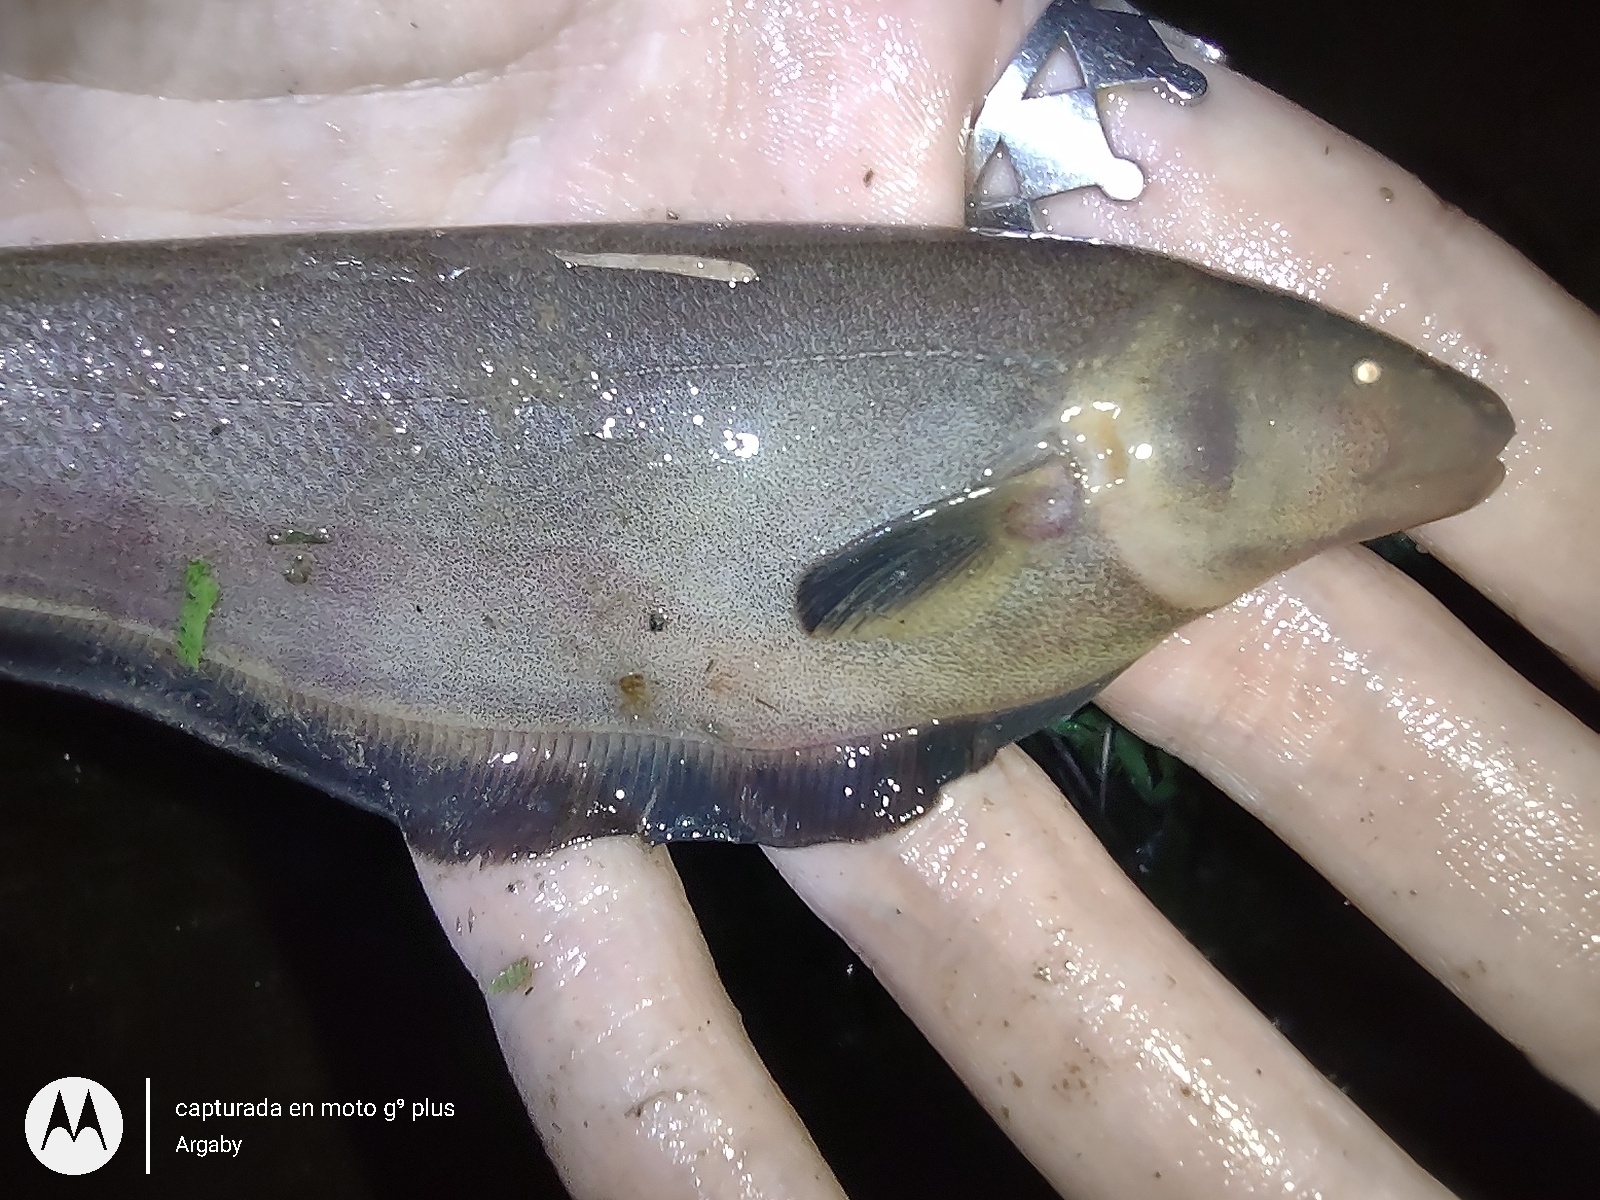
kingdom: Animalia
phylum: Chordata
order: Gymnotiformes
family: Apteronotidae
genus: Apteronotus
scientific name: Apteronotus albifrons
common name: Black ghost
